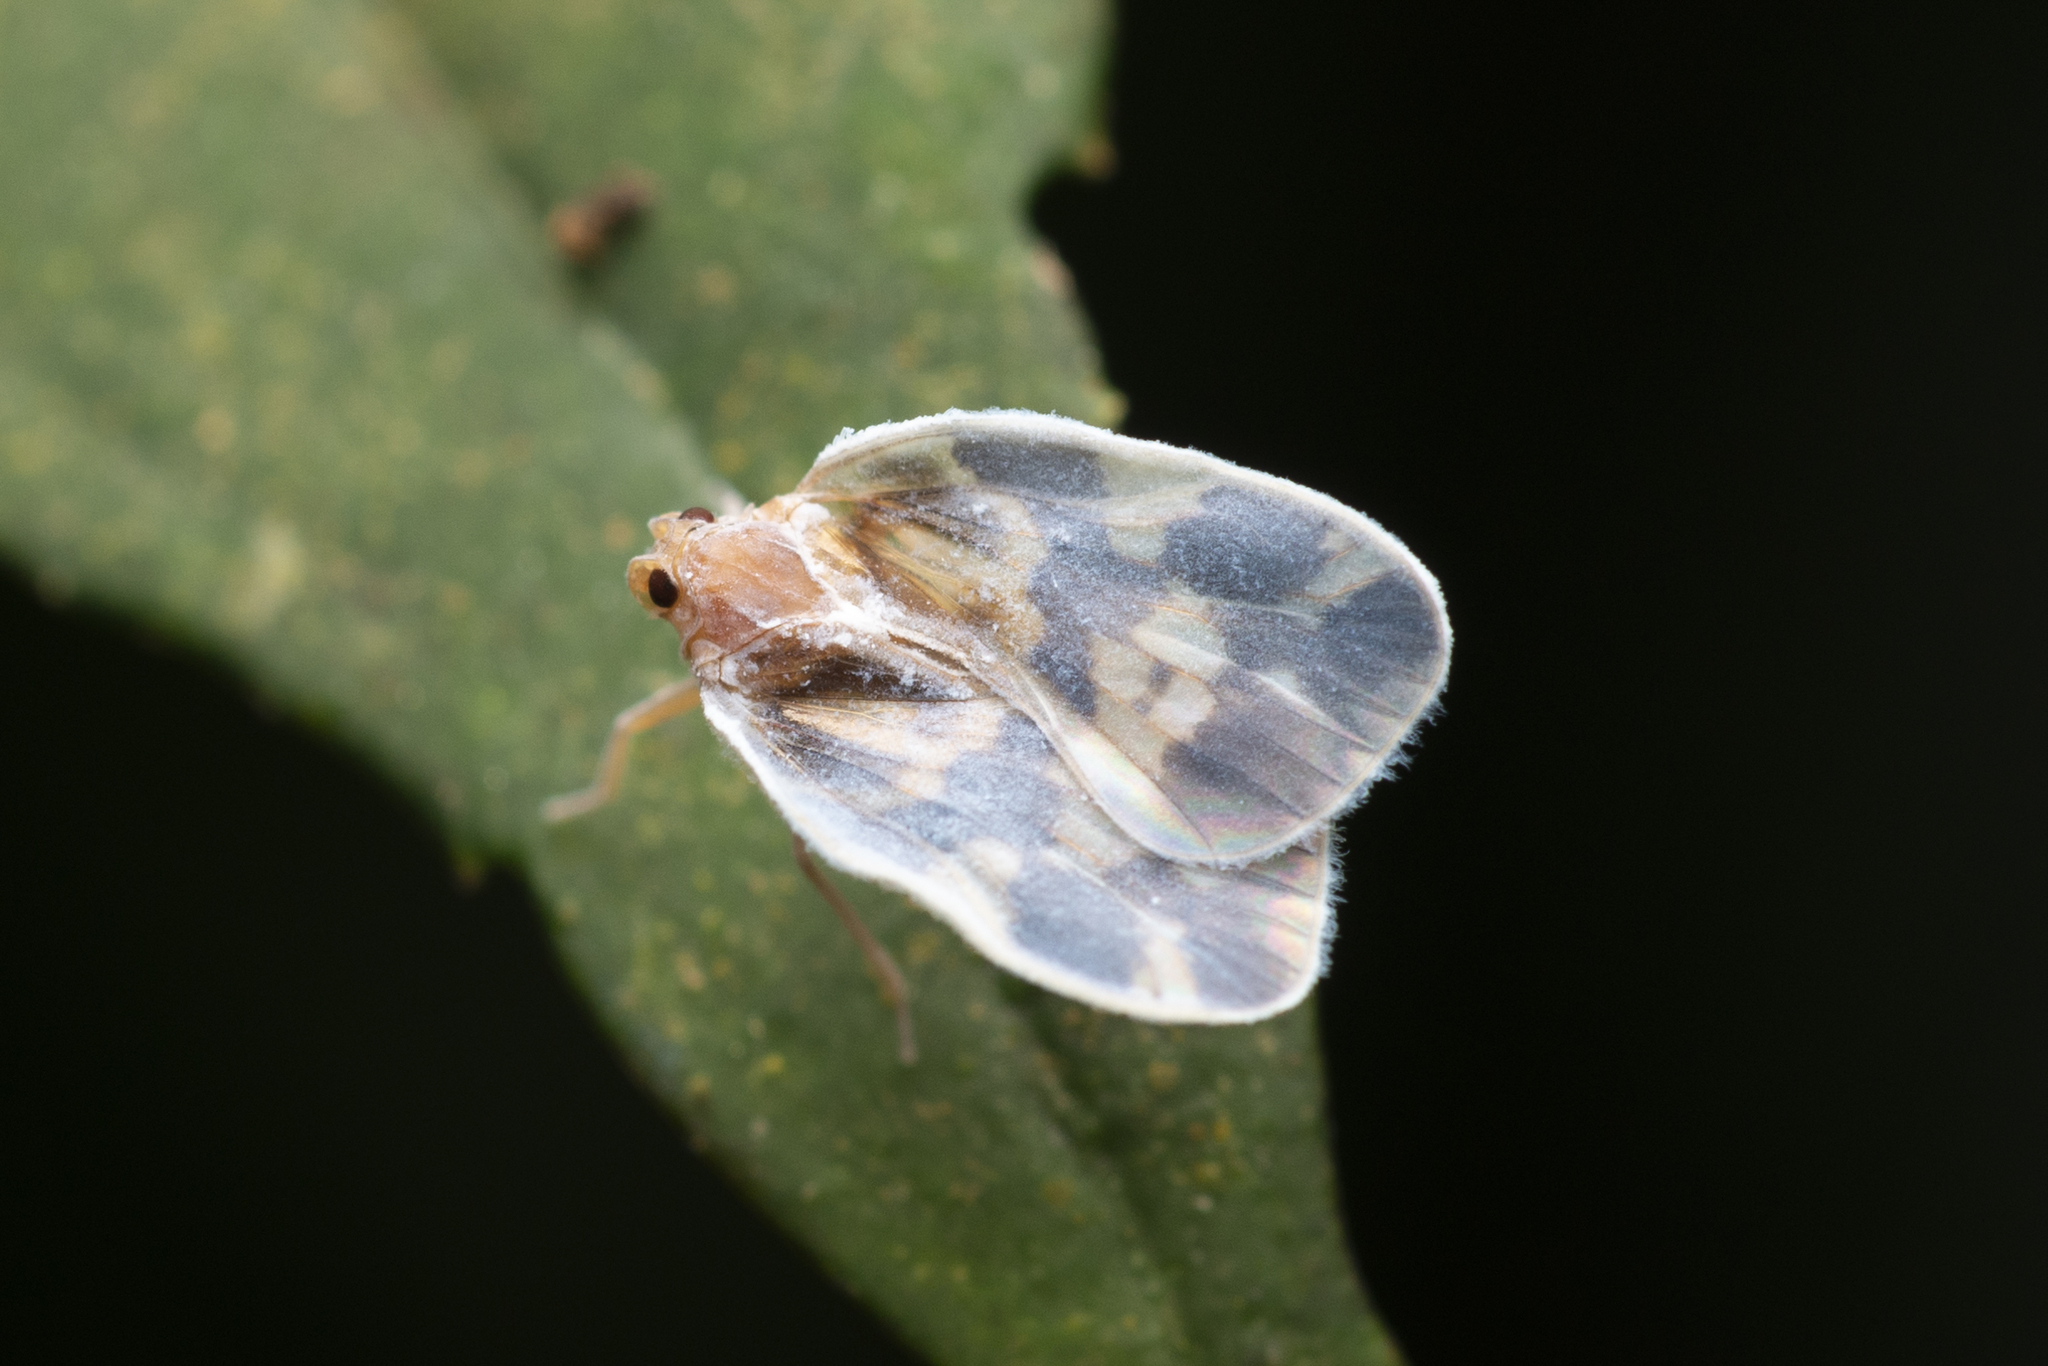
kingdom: Animalia
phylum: Arthropoda
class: Insecta
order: Hemiptera
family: Cixiidae
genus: Borysthenes
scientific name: Borysthenes emarginatus
